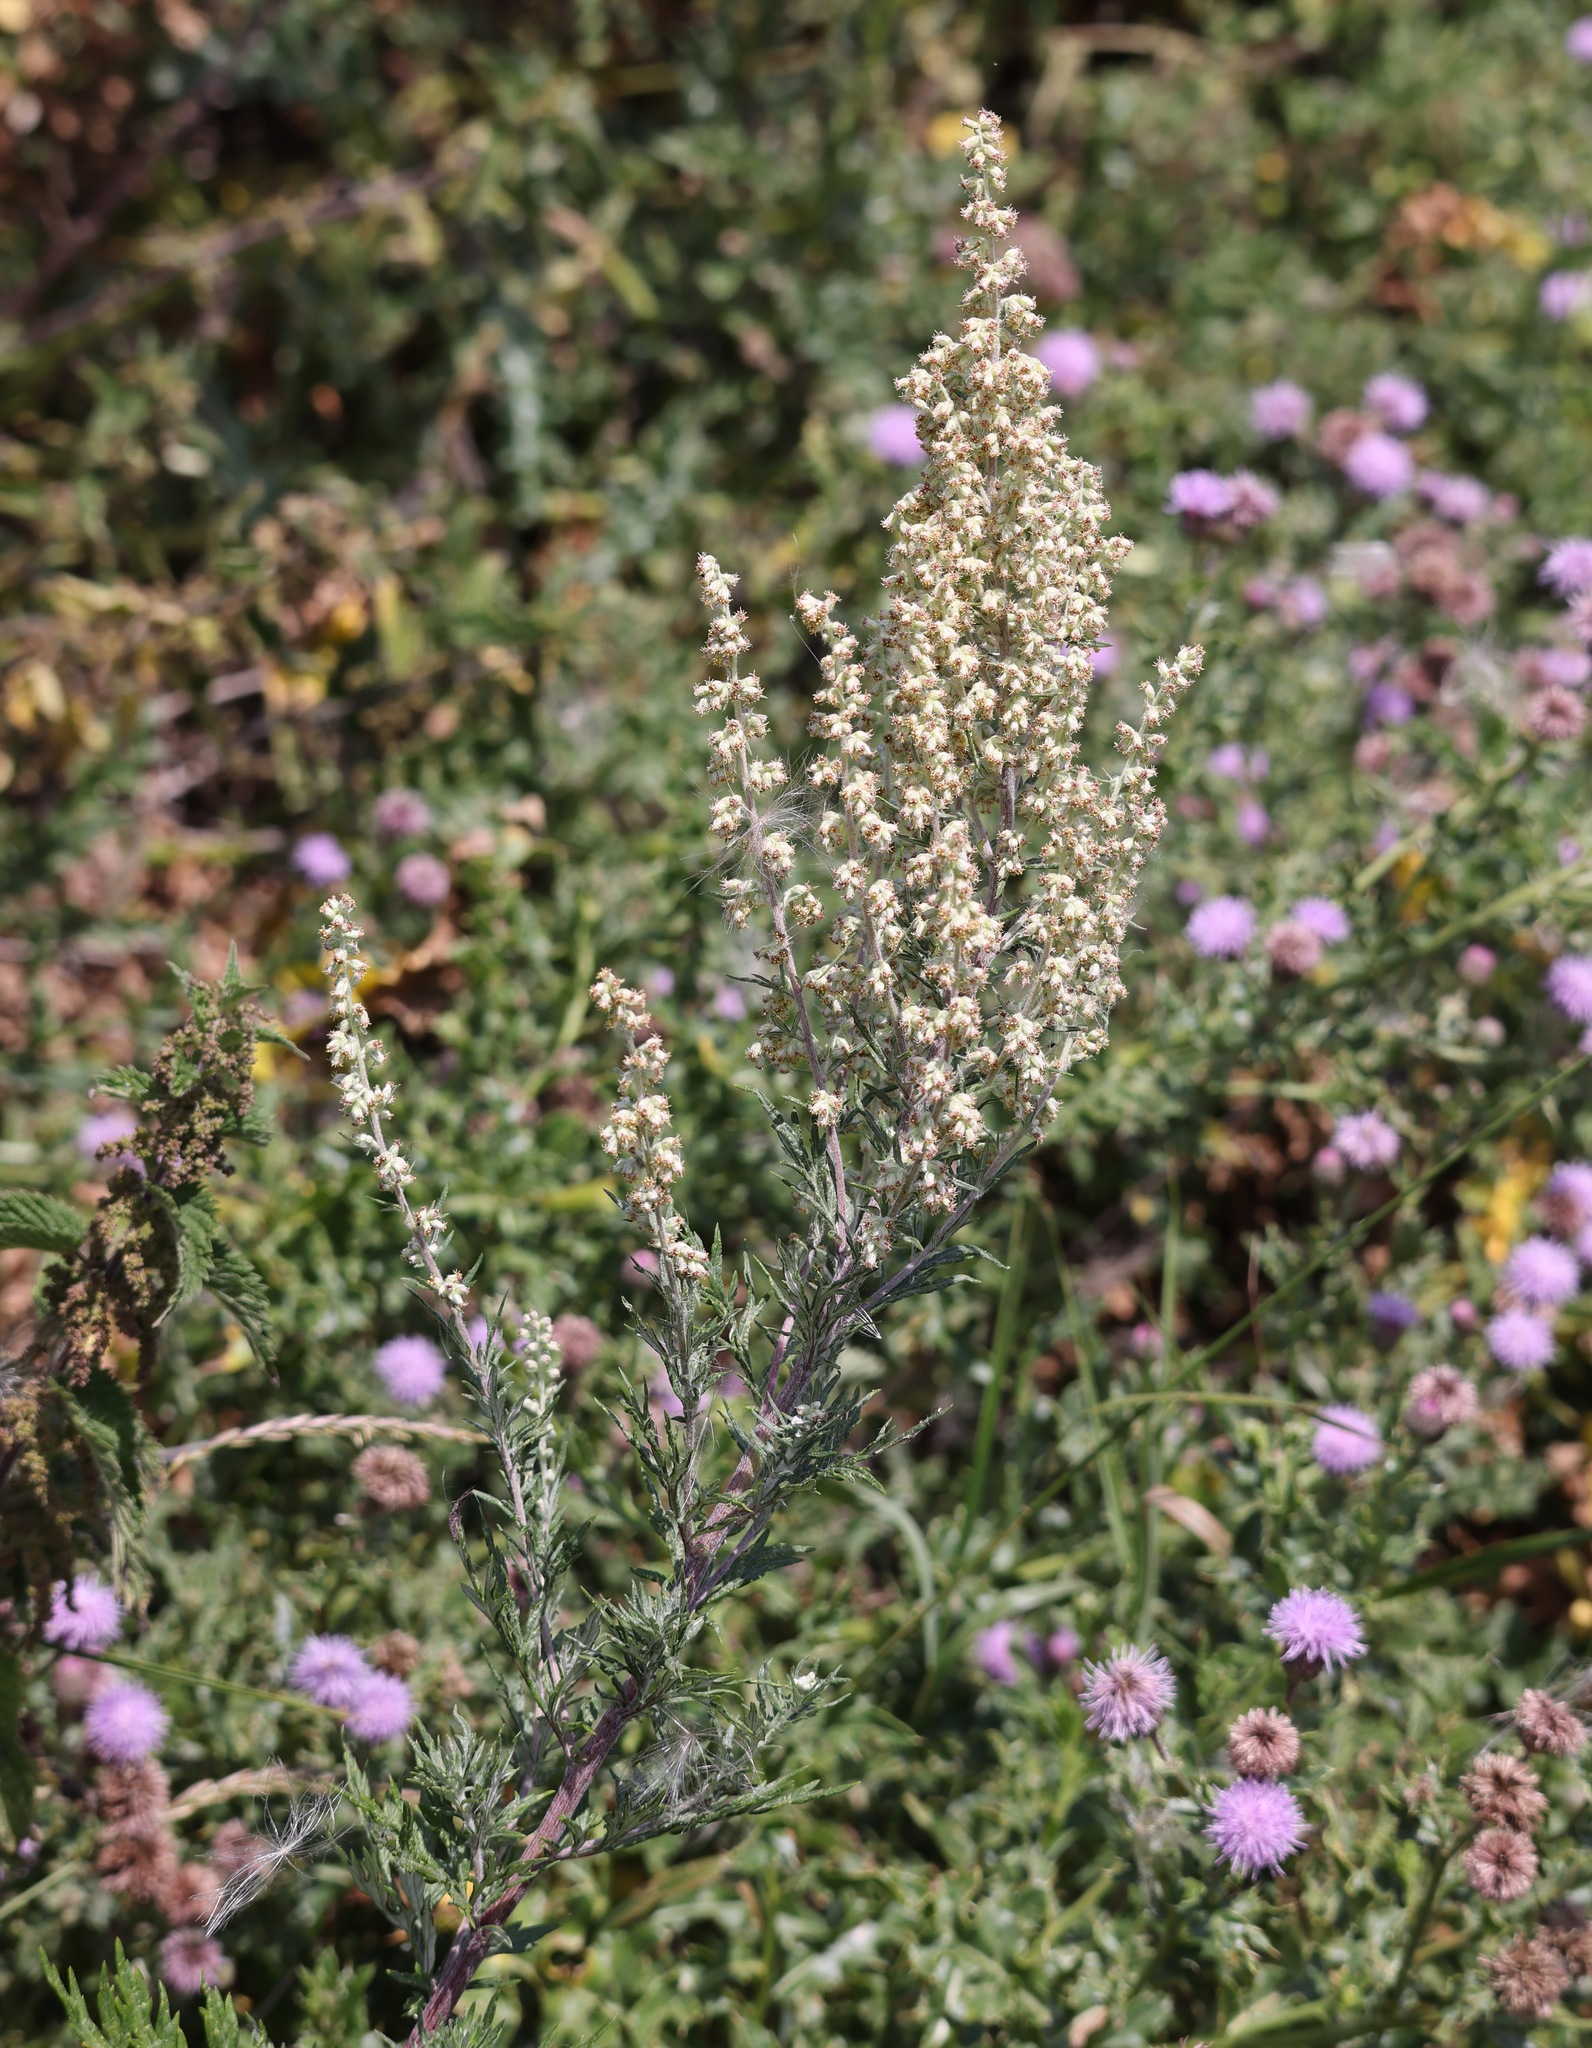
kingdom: Plantae
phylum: Tracheophyta
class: Magnoliopsida
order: Asterales
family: Asteraceae
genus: Artemisia
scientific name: Artemisia vulgaris
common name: Mugwort
